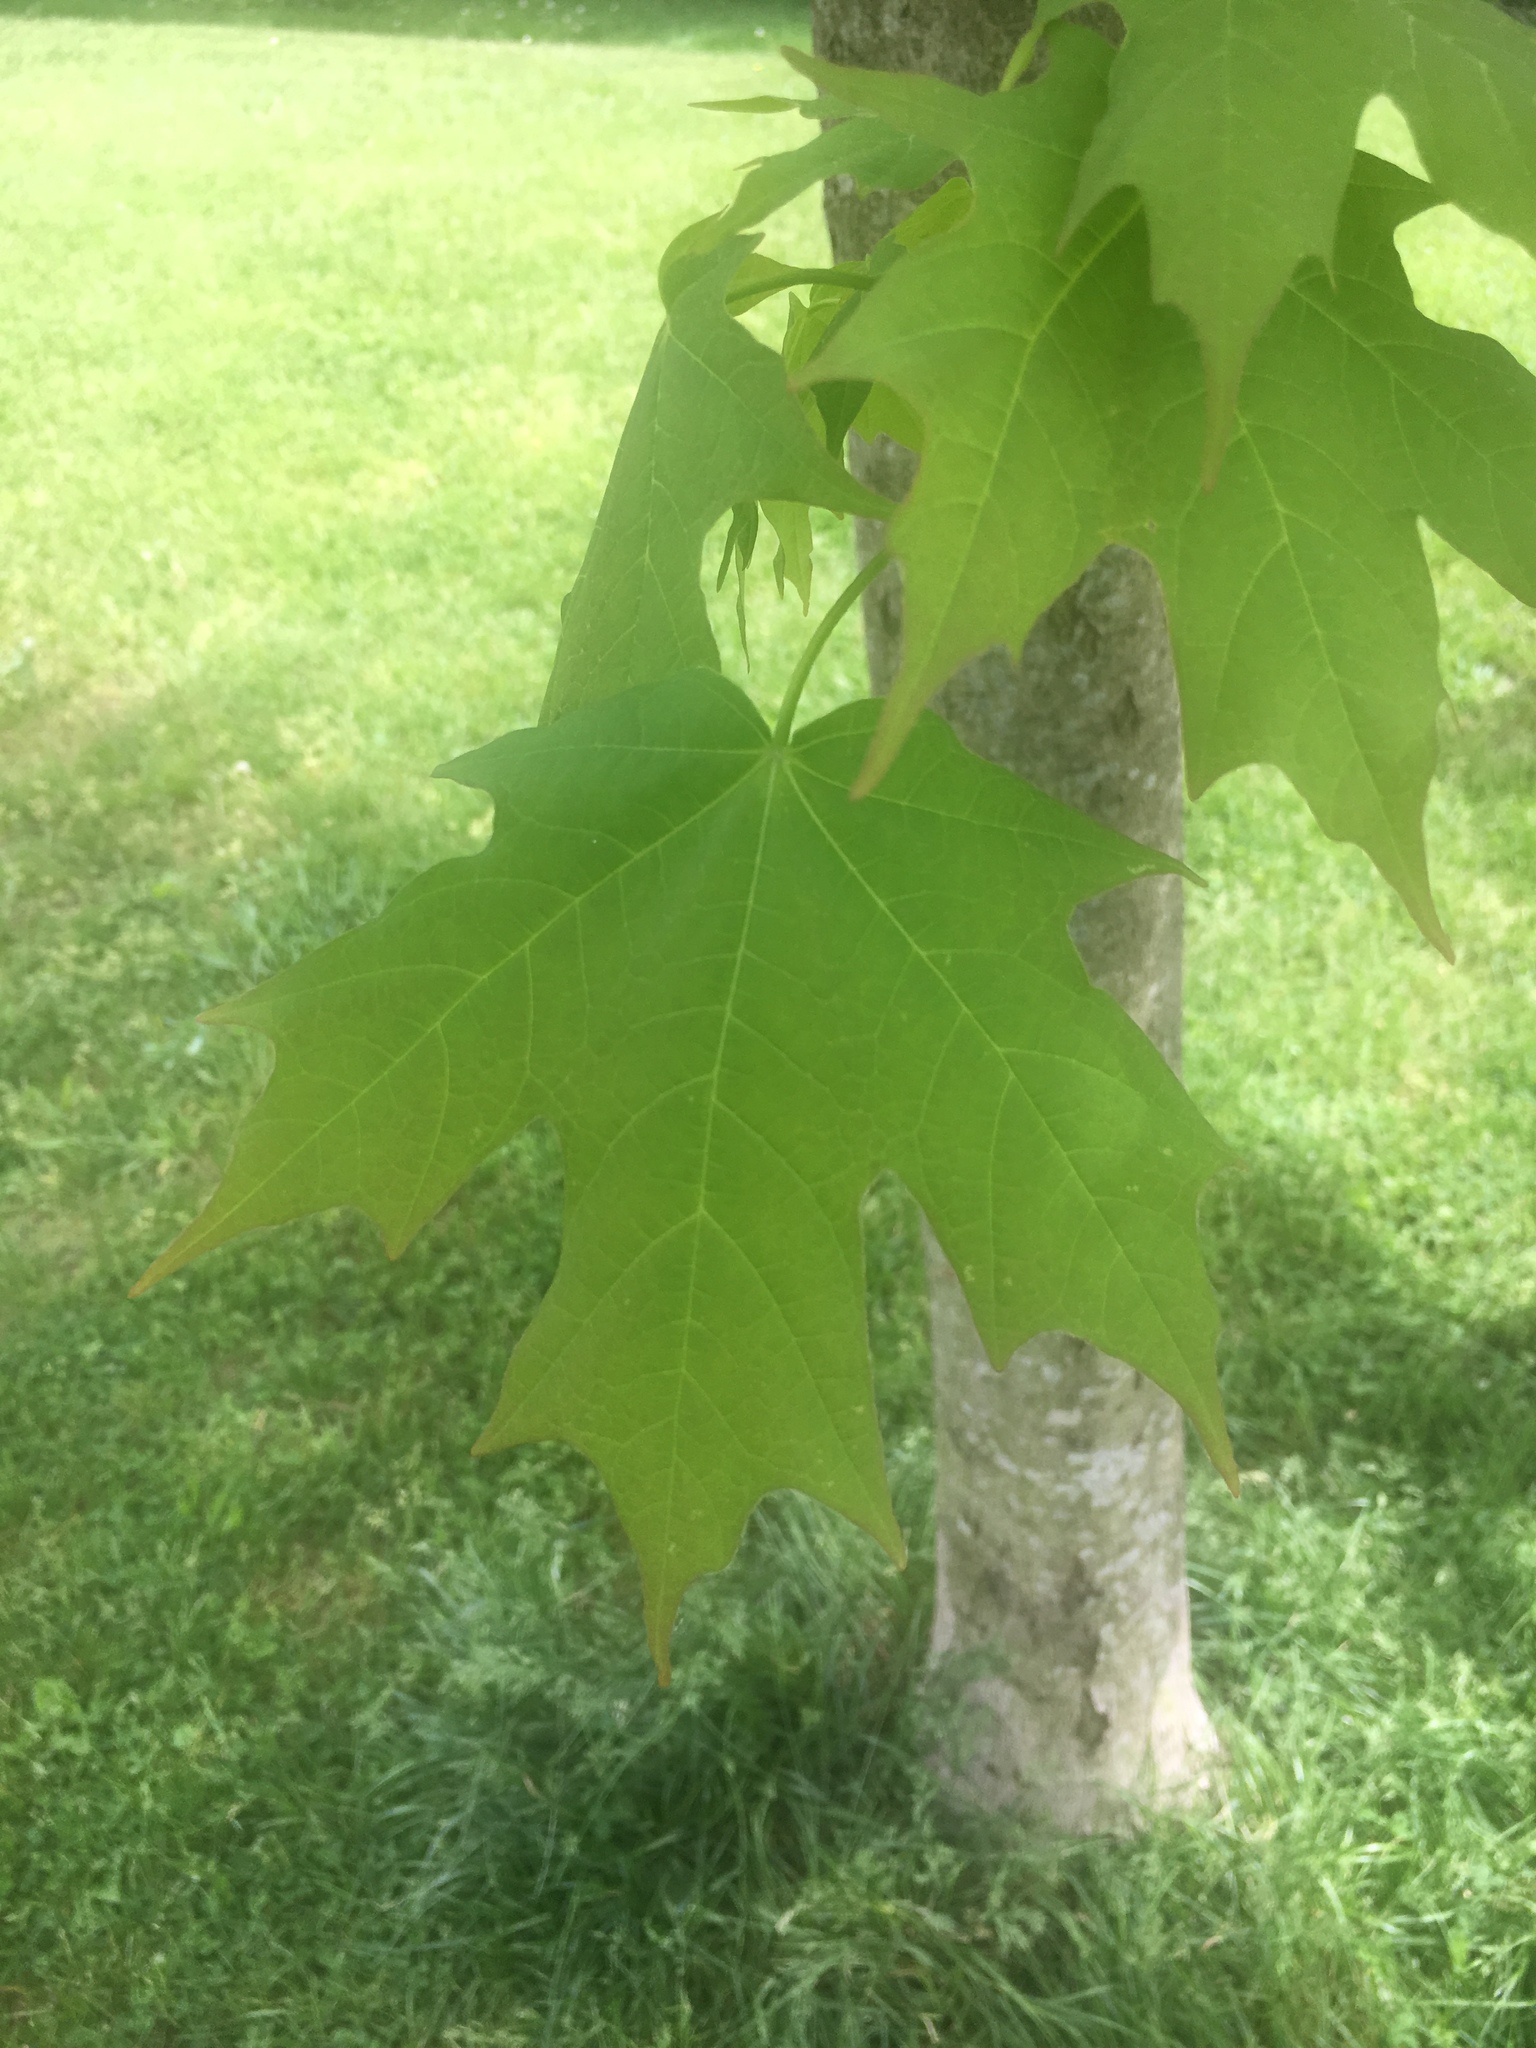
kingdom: Plantae
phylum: Tracheophyta
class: Magnoliopsida
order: Sapindales
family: Sapindaceae
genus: Acer
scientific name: Acer saccharum
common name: Sugar maple
